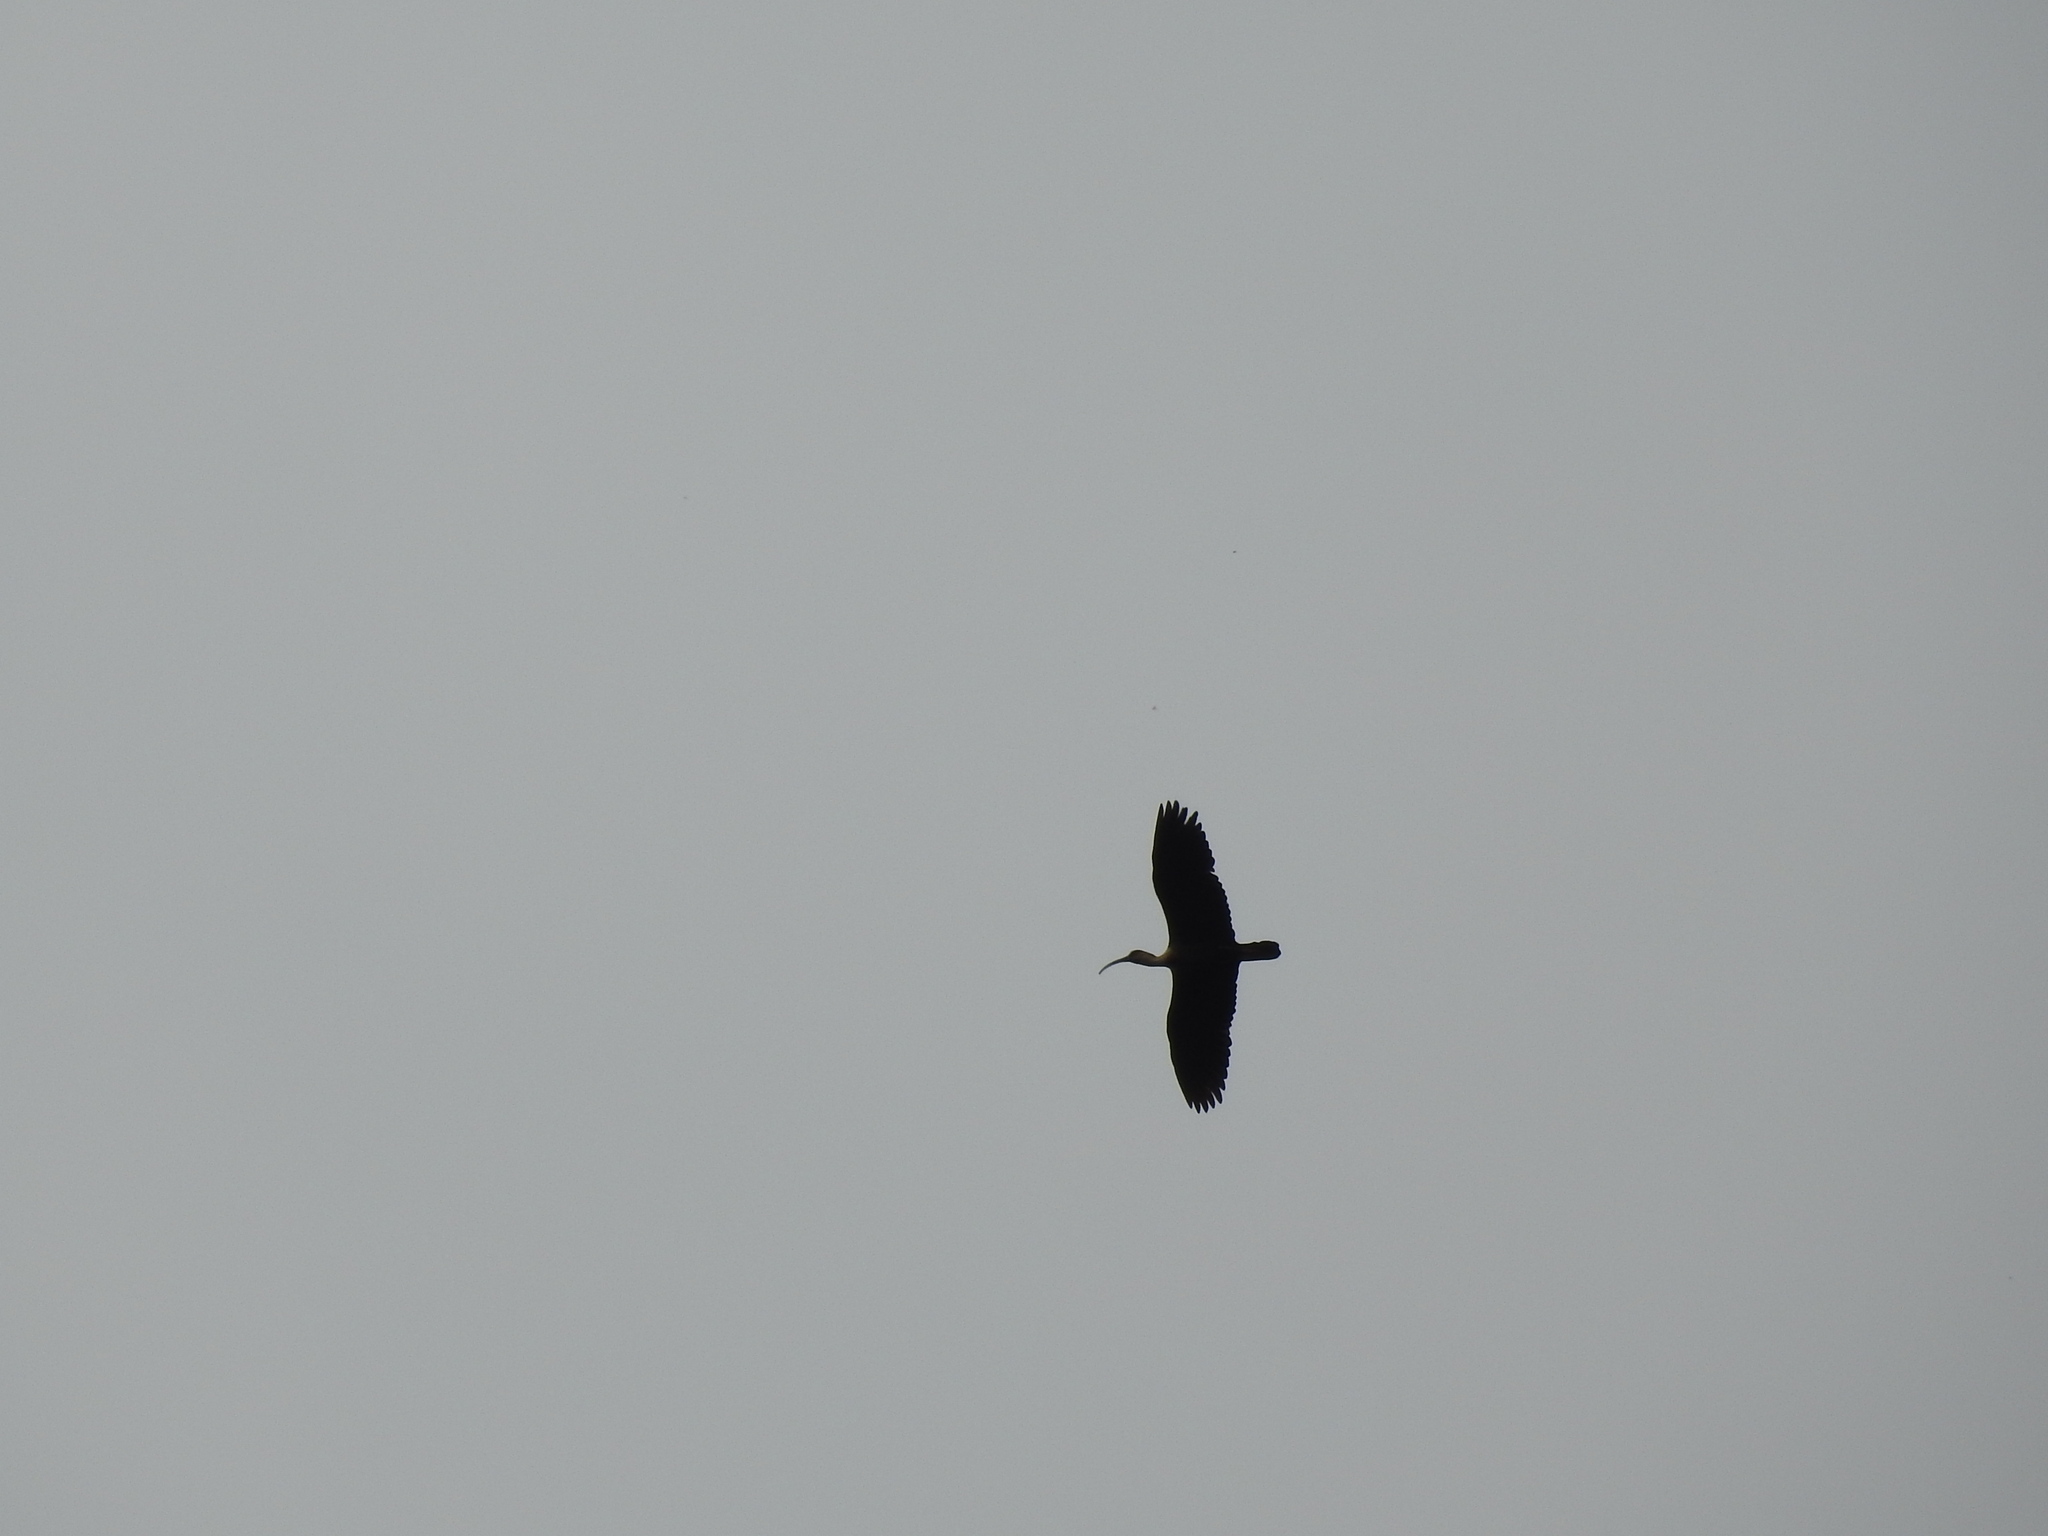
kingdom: Animalia
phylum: Chordata
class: Aves
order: Pelecaniformes
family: Threskiornithidae
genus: Theristicus
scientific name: Theristicus caudatus
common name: Buff-necked ibis
